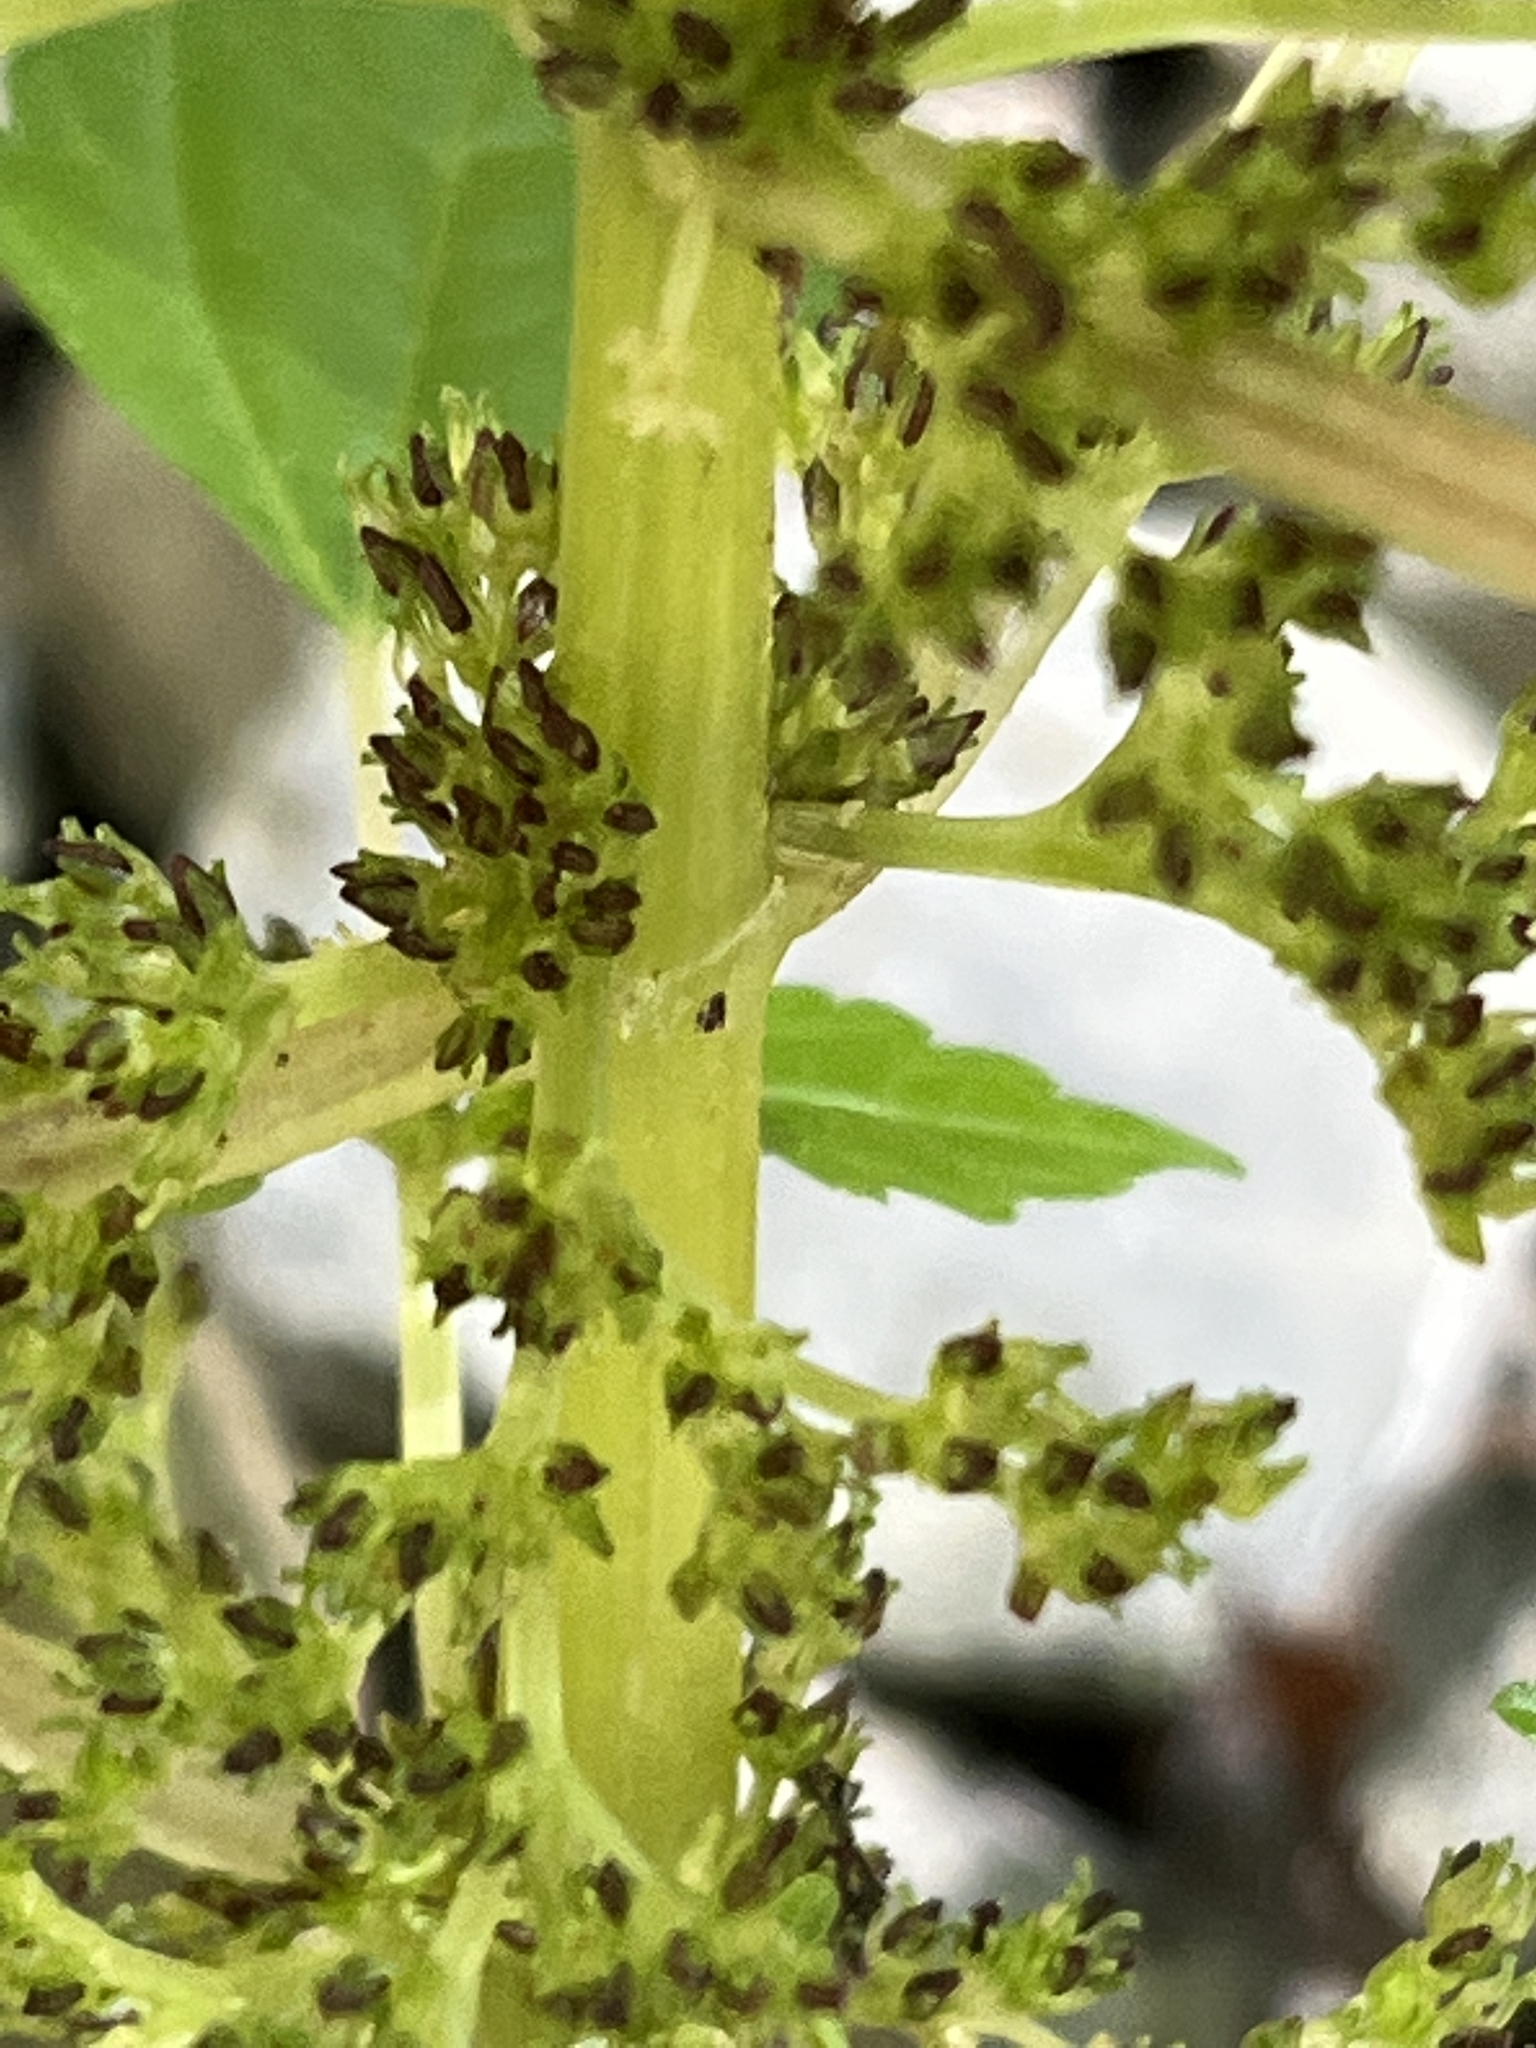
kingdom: Plantae
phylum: Tracheophyta
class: Magnoliopsida
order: Rosales
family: Urticaceae
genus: Pilea
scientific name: Pilea pumila
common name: Clearweed
